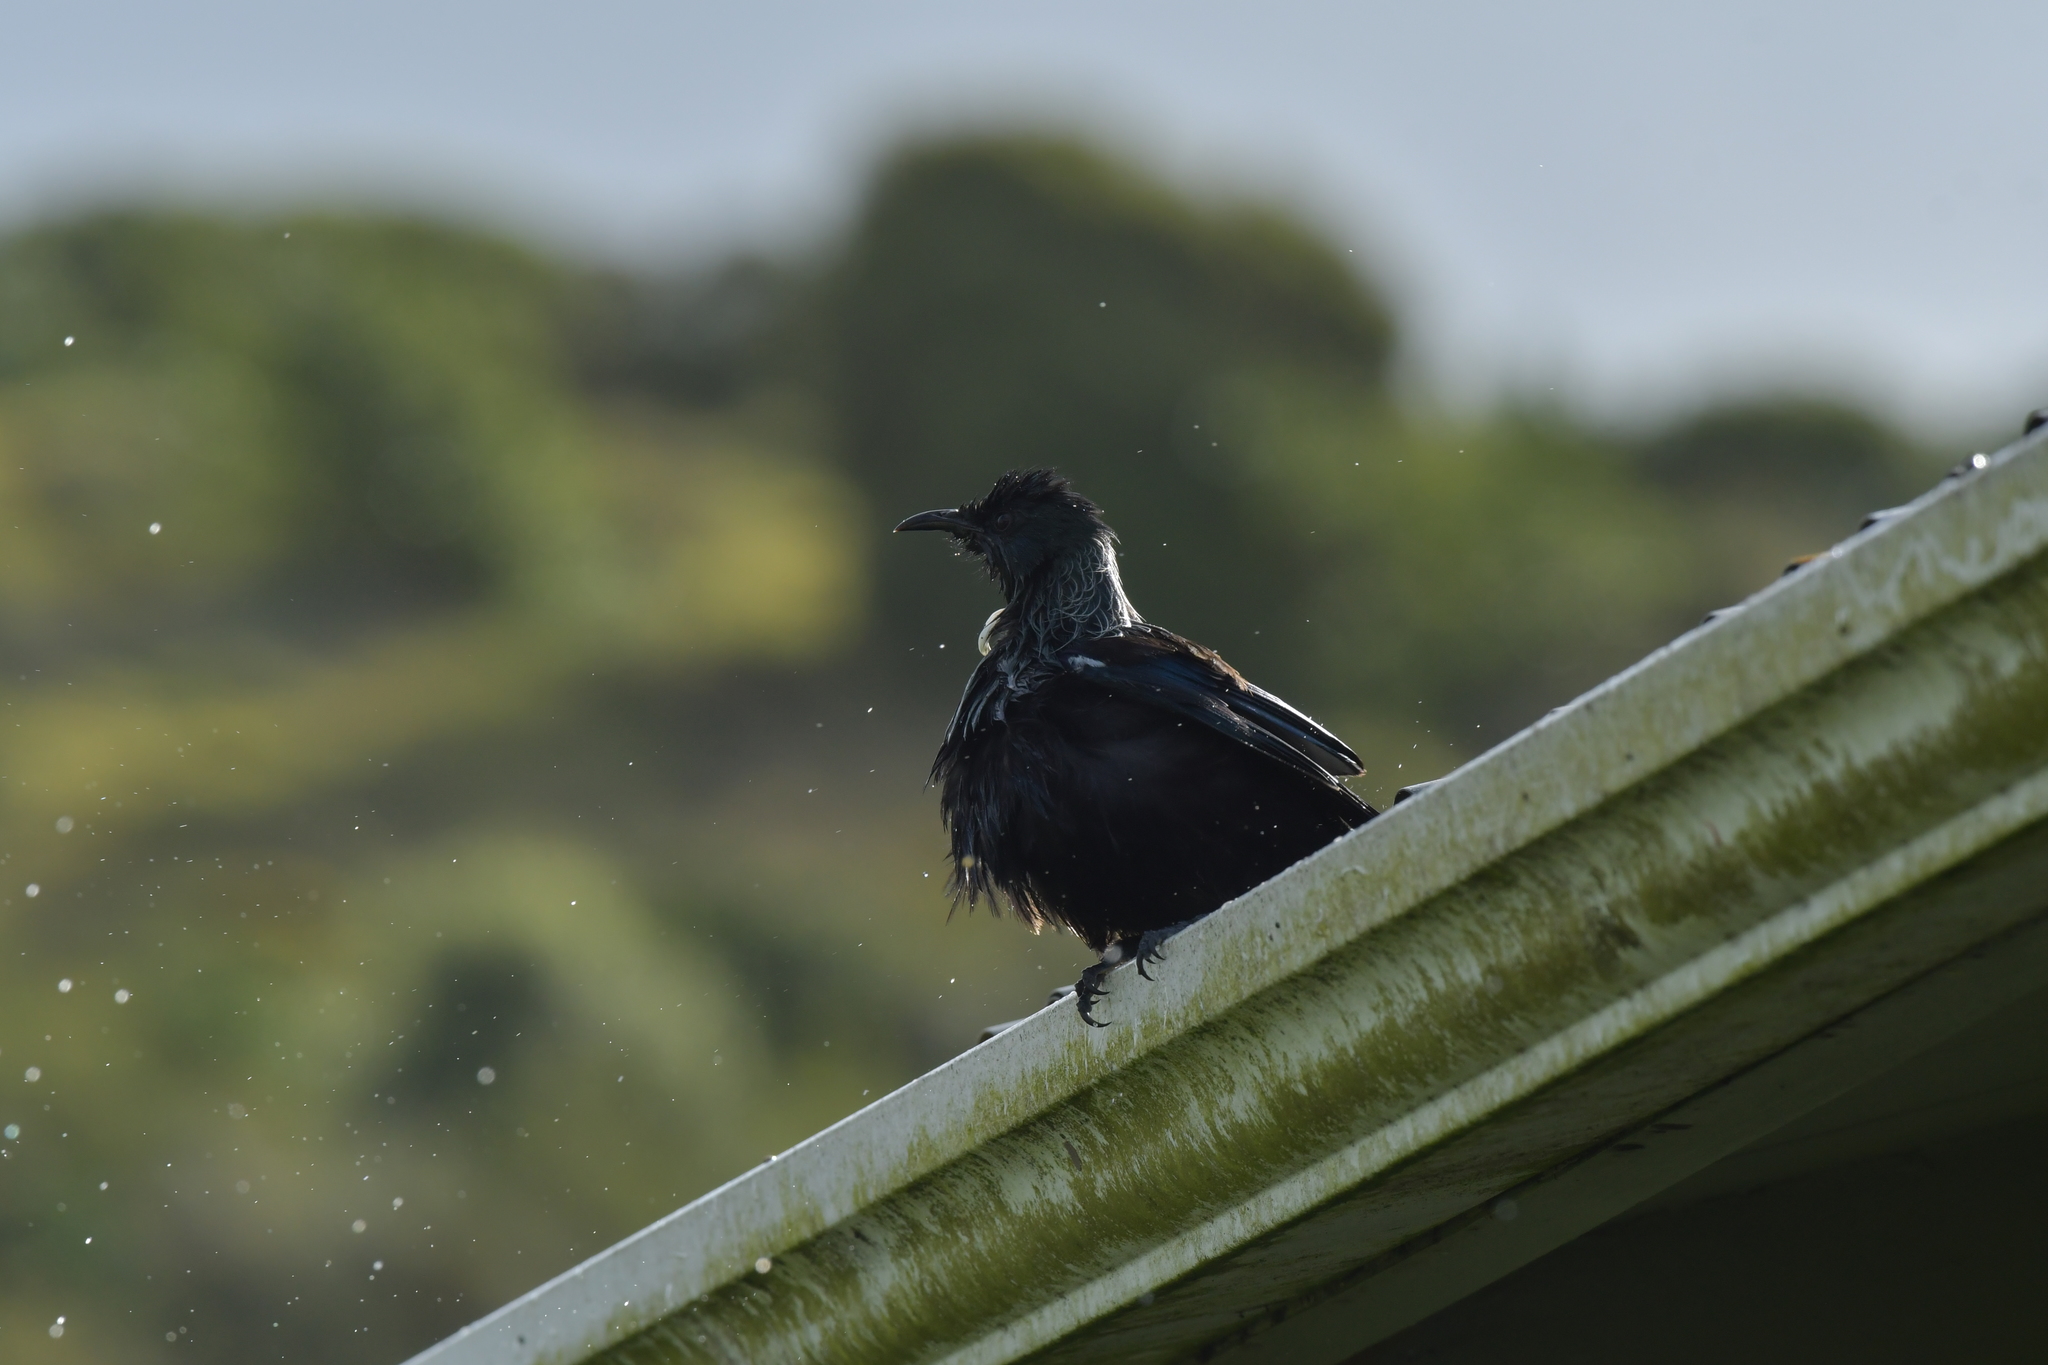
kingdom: Animalia
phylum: Chordata
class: Aves
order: Passeriformes
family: Meliphagidae
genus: Prosthemadera
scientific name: Prosthemadera novaeseelandiae
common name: Tui
